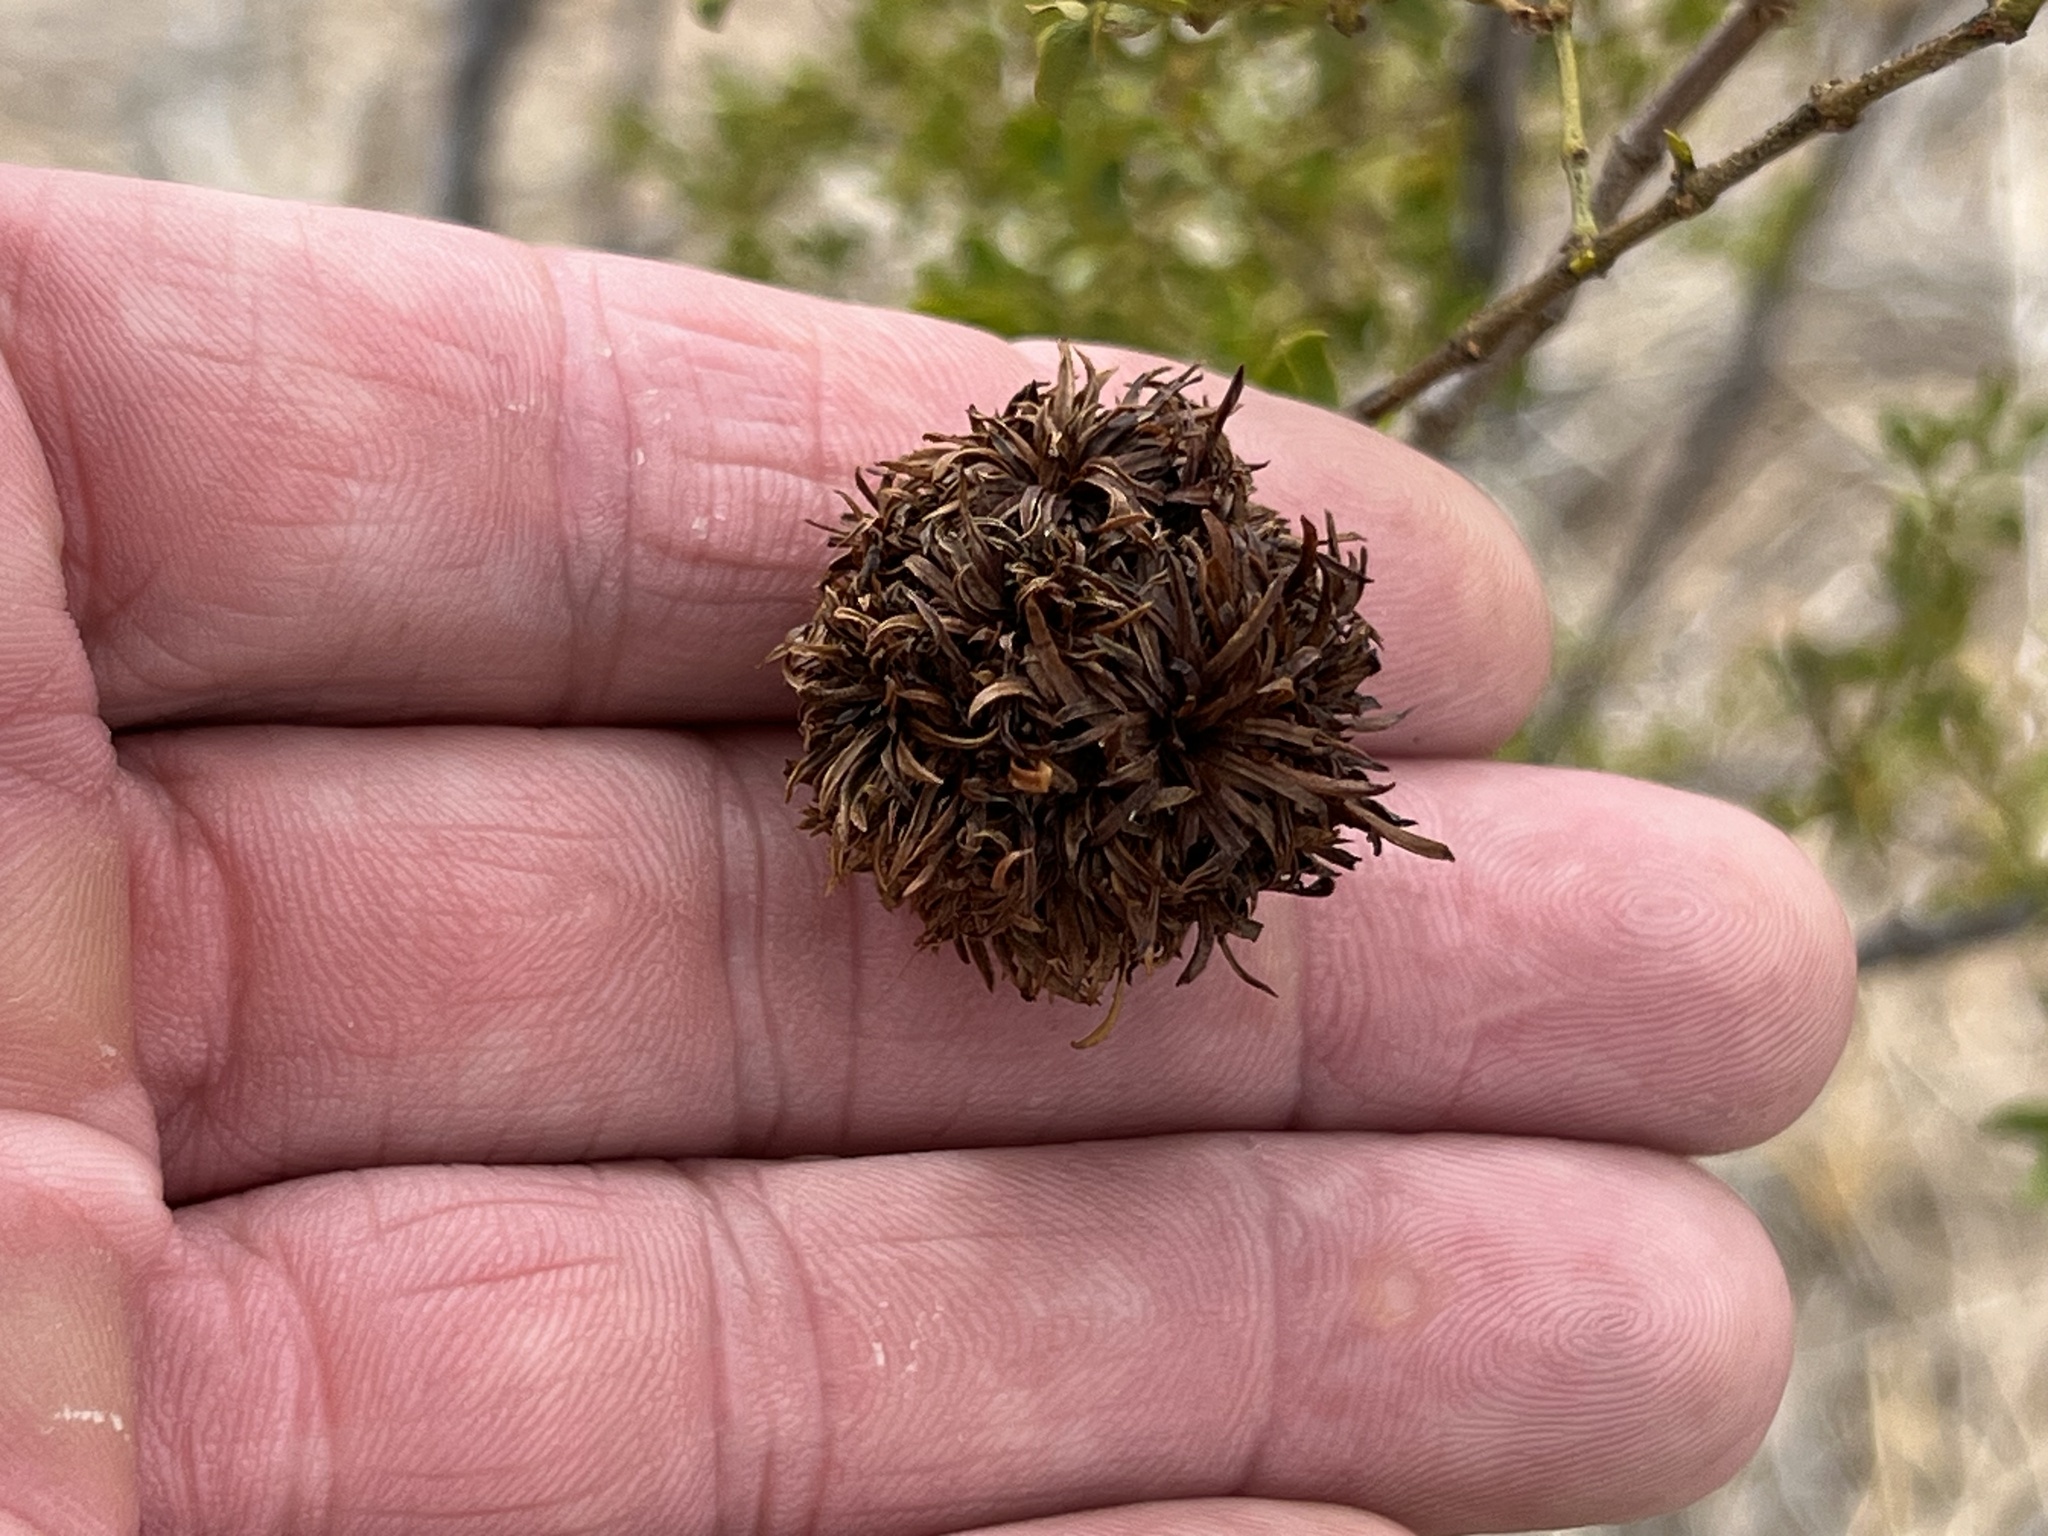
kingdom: Animalia
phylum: Arthropoda
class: Insecta
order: Diptera
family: Cecidomyiidae
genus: Asphondylia
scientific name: Asphondylia auripila
